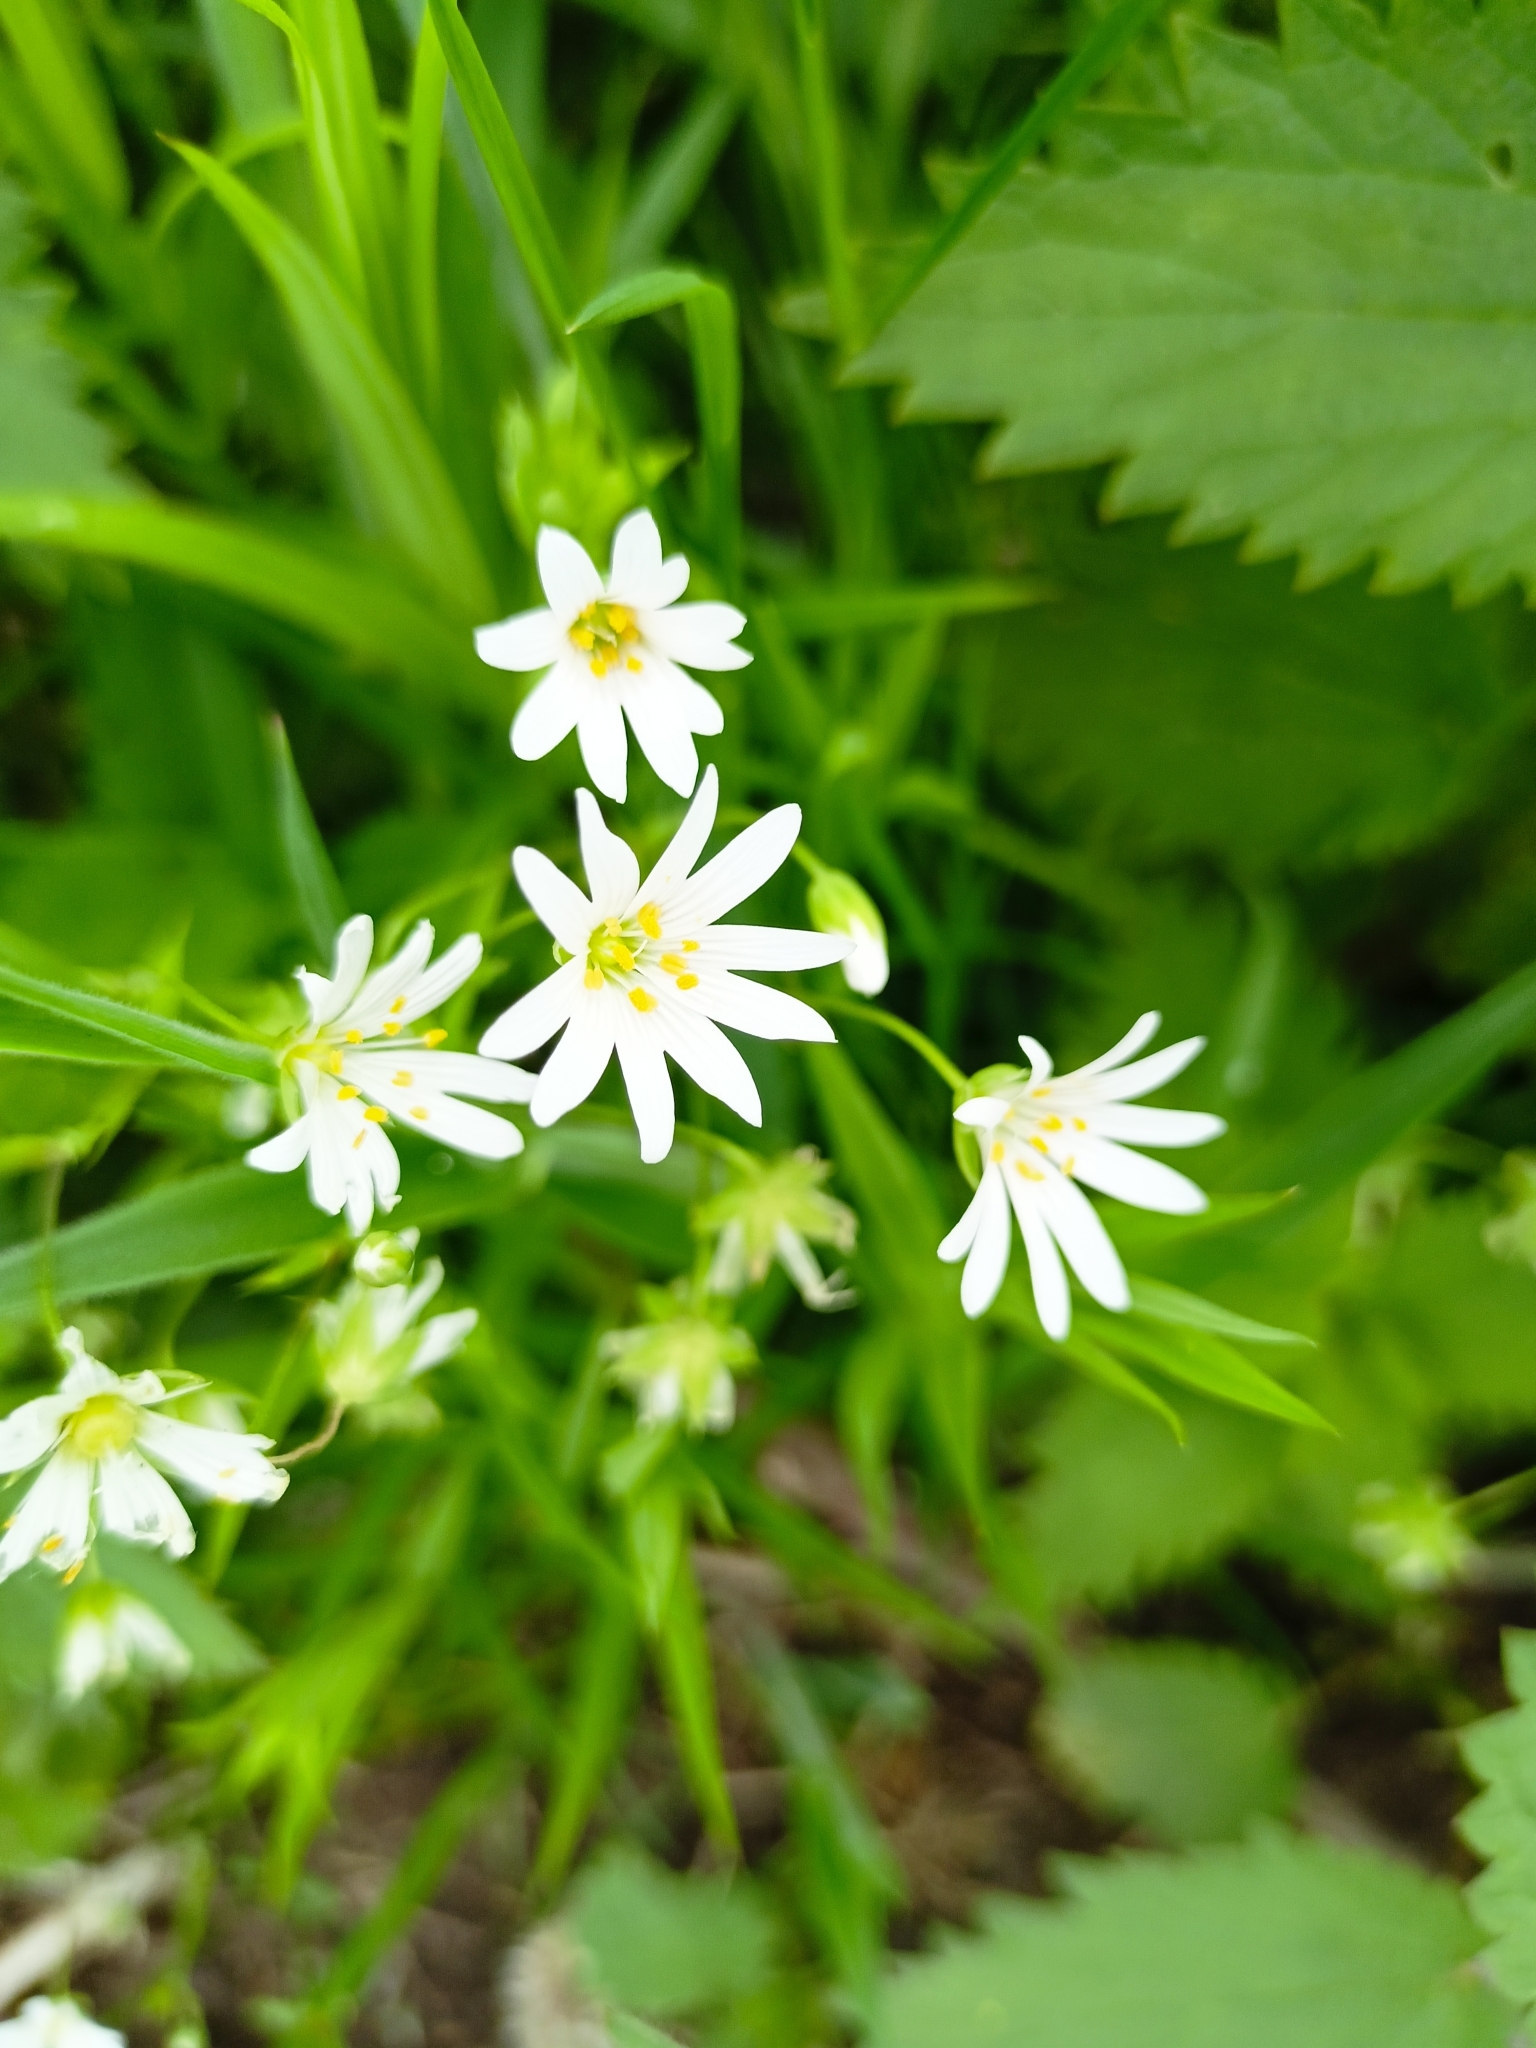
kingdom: Plantae
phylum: Tracheophyta
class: Magnoliopsida
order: Caryophyllales
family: Caryophyllaceae
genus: Rabelera
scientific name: Rabelera holostea
